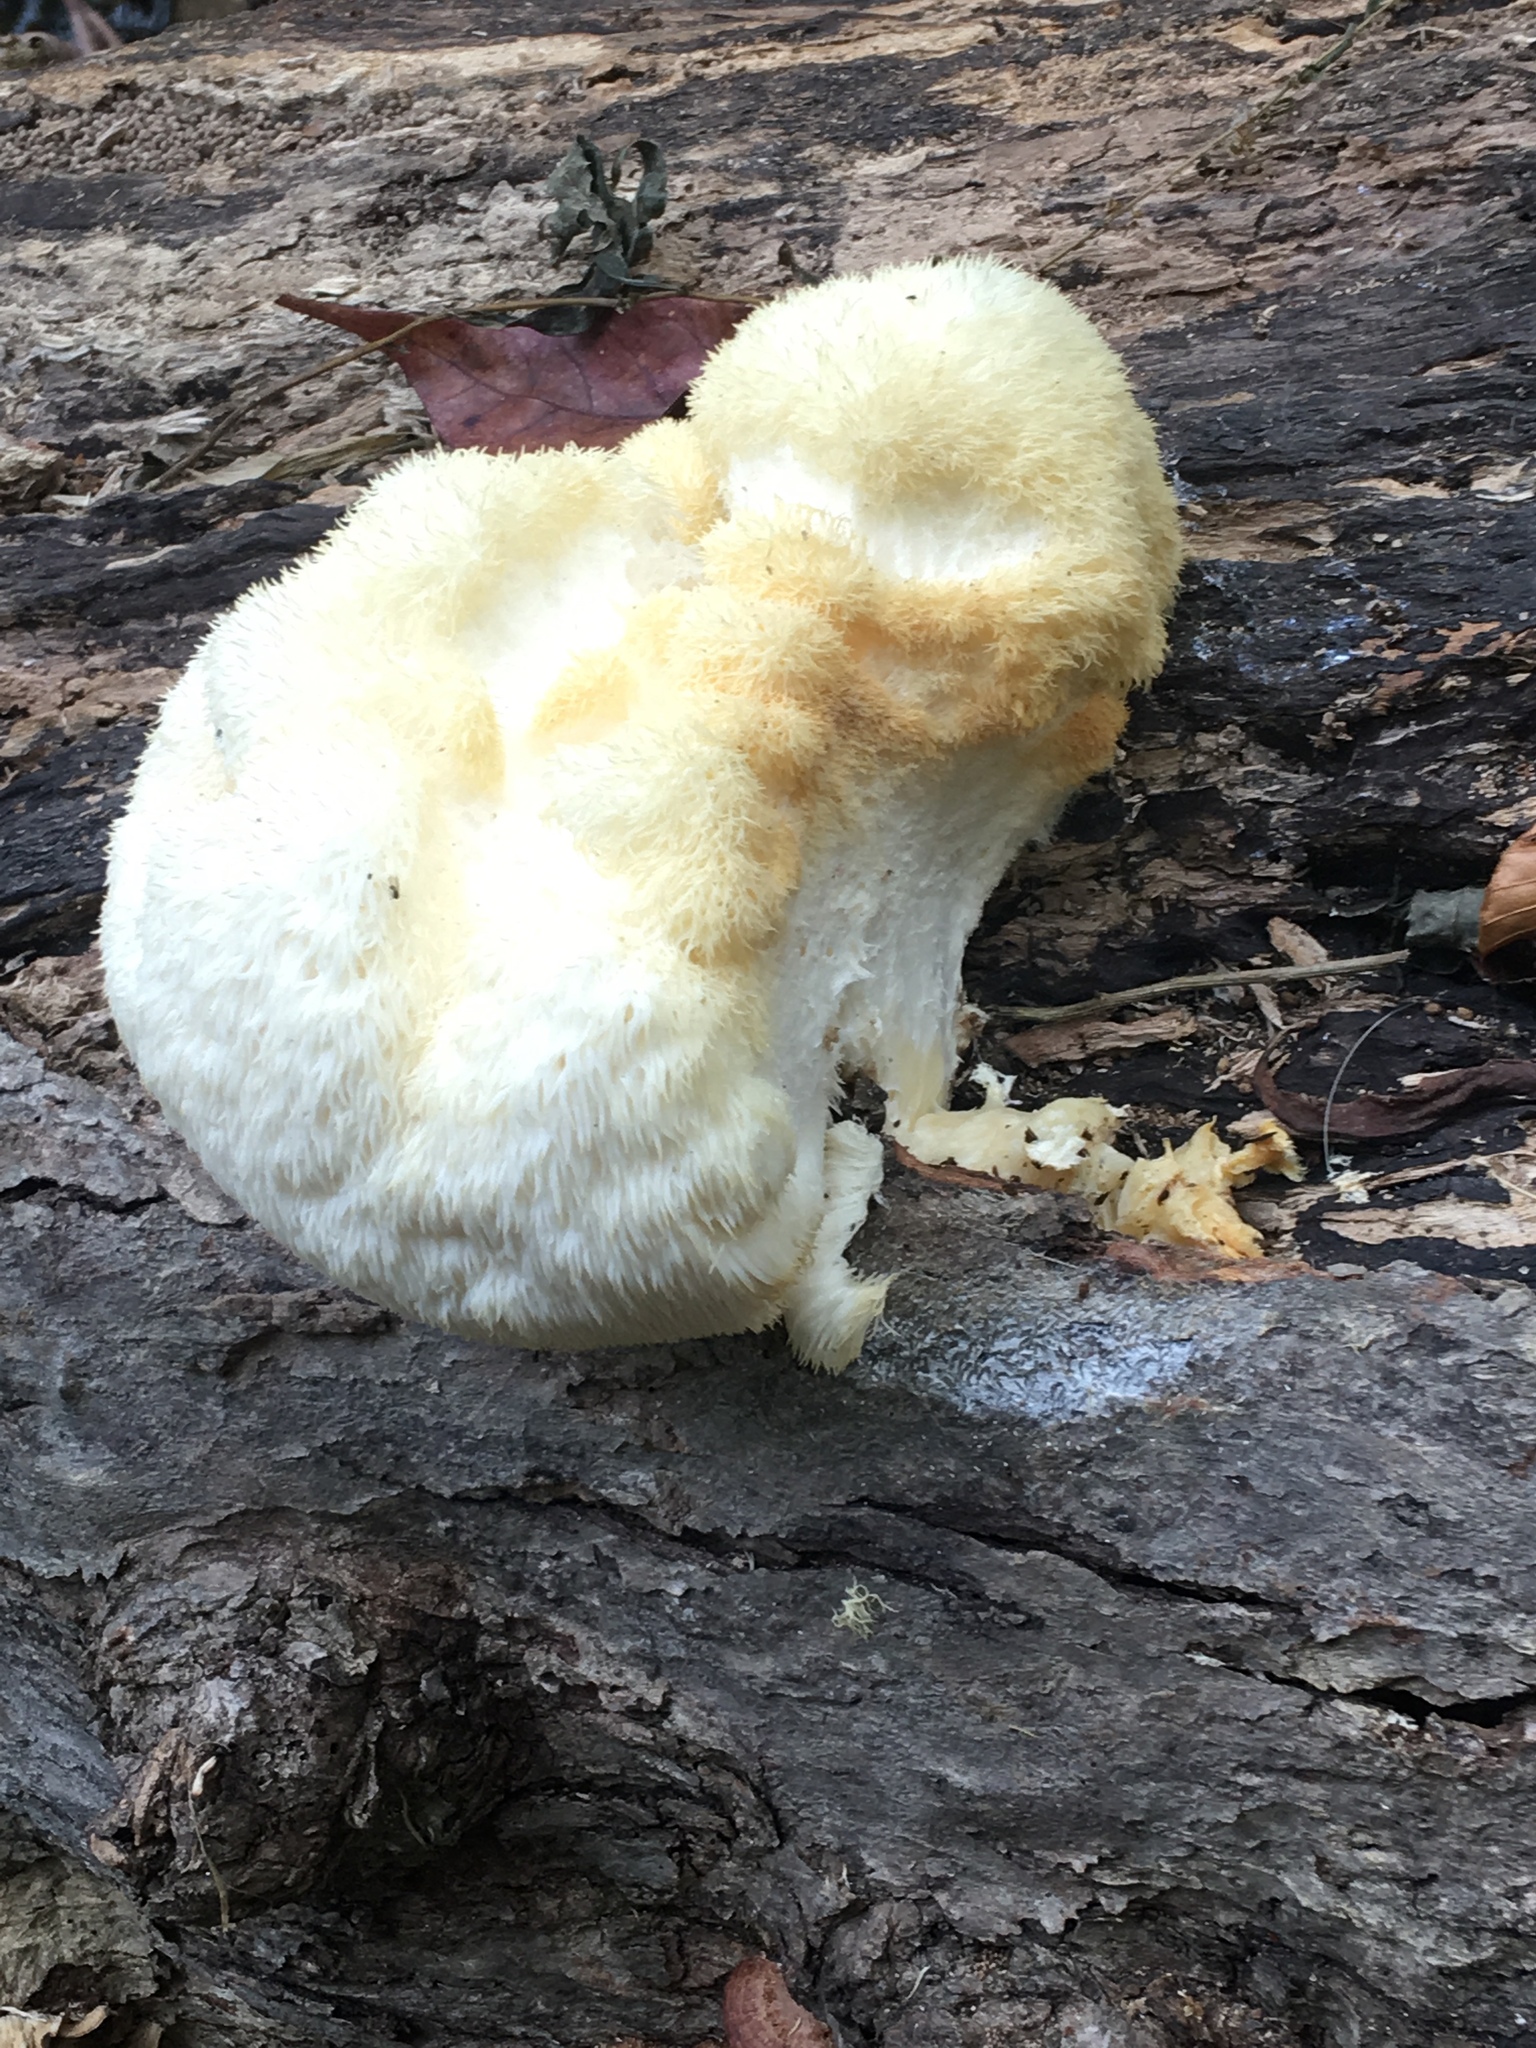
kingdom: Fungi
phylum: Basidiomycota
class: Agaricomycetes
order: Russulales
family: Hericiaceae
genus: Hericium
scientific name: Hericium erinaceus
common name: Bearded tooth
